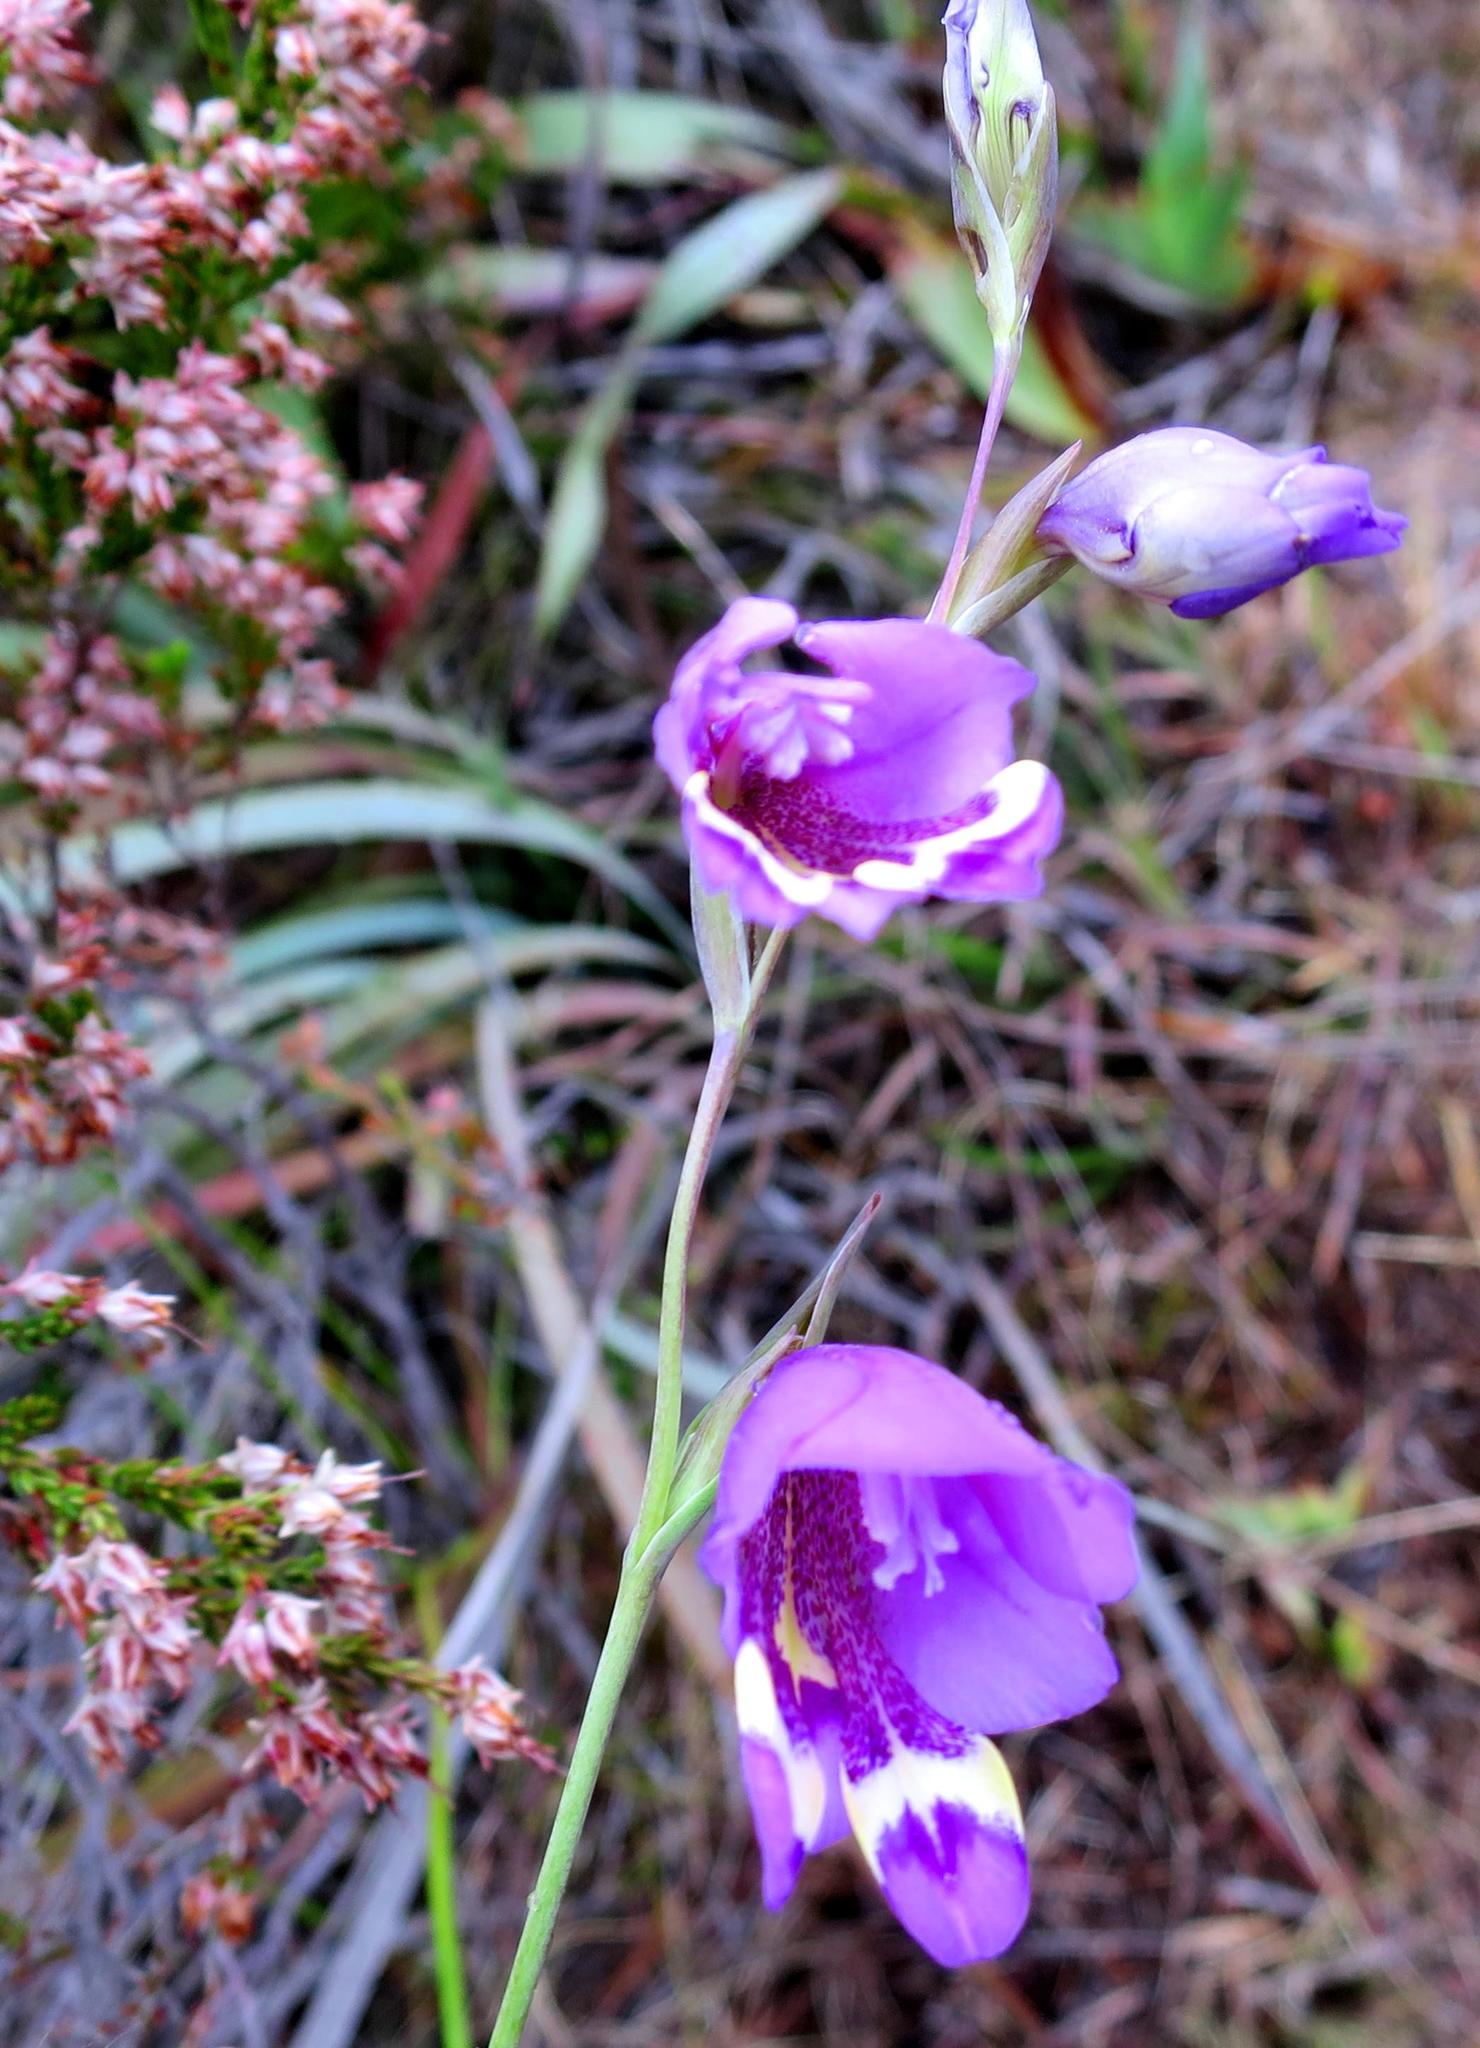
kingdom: Plantae
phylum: Tracheophyta
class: Liliopsida
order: Asparagales
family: Iridaceae
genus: Gladiolus
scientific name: Gladiolus rogersii
